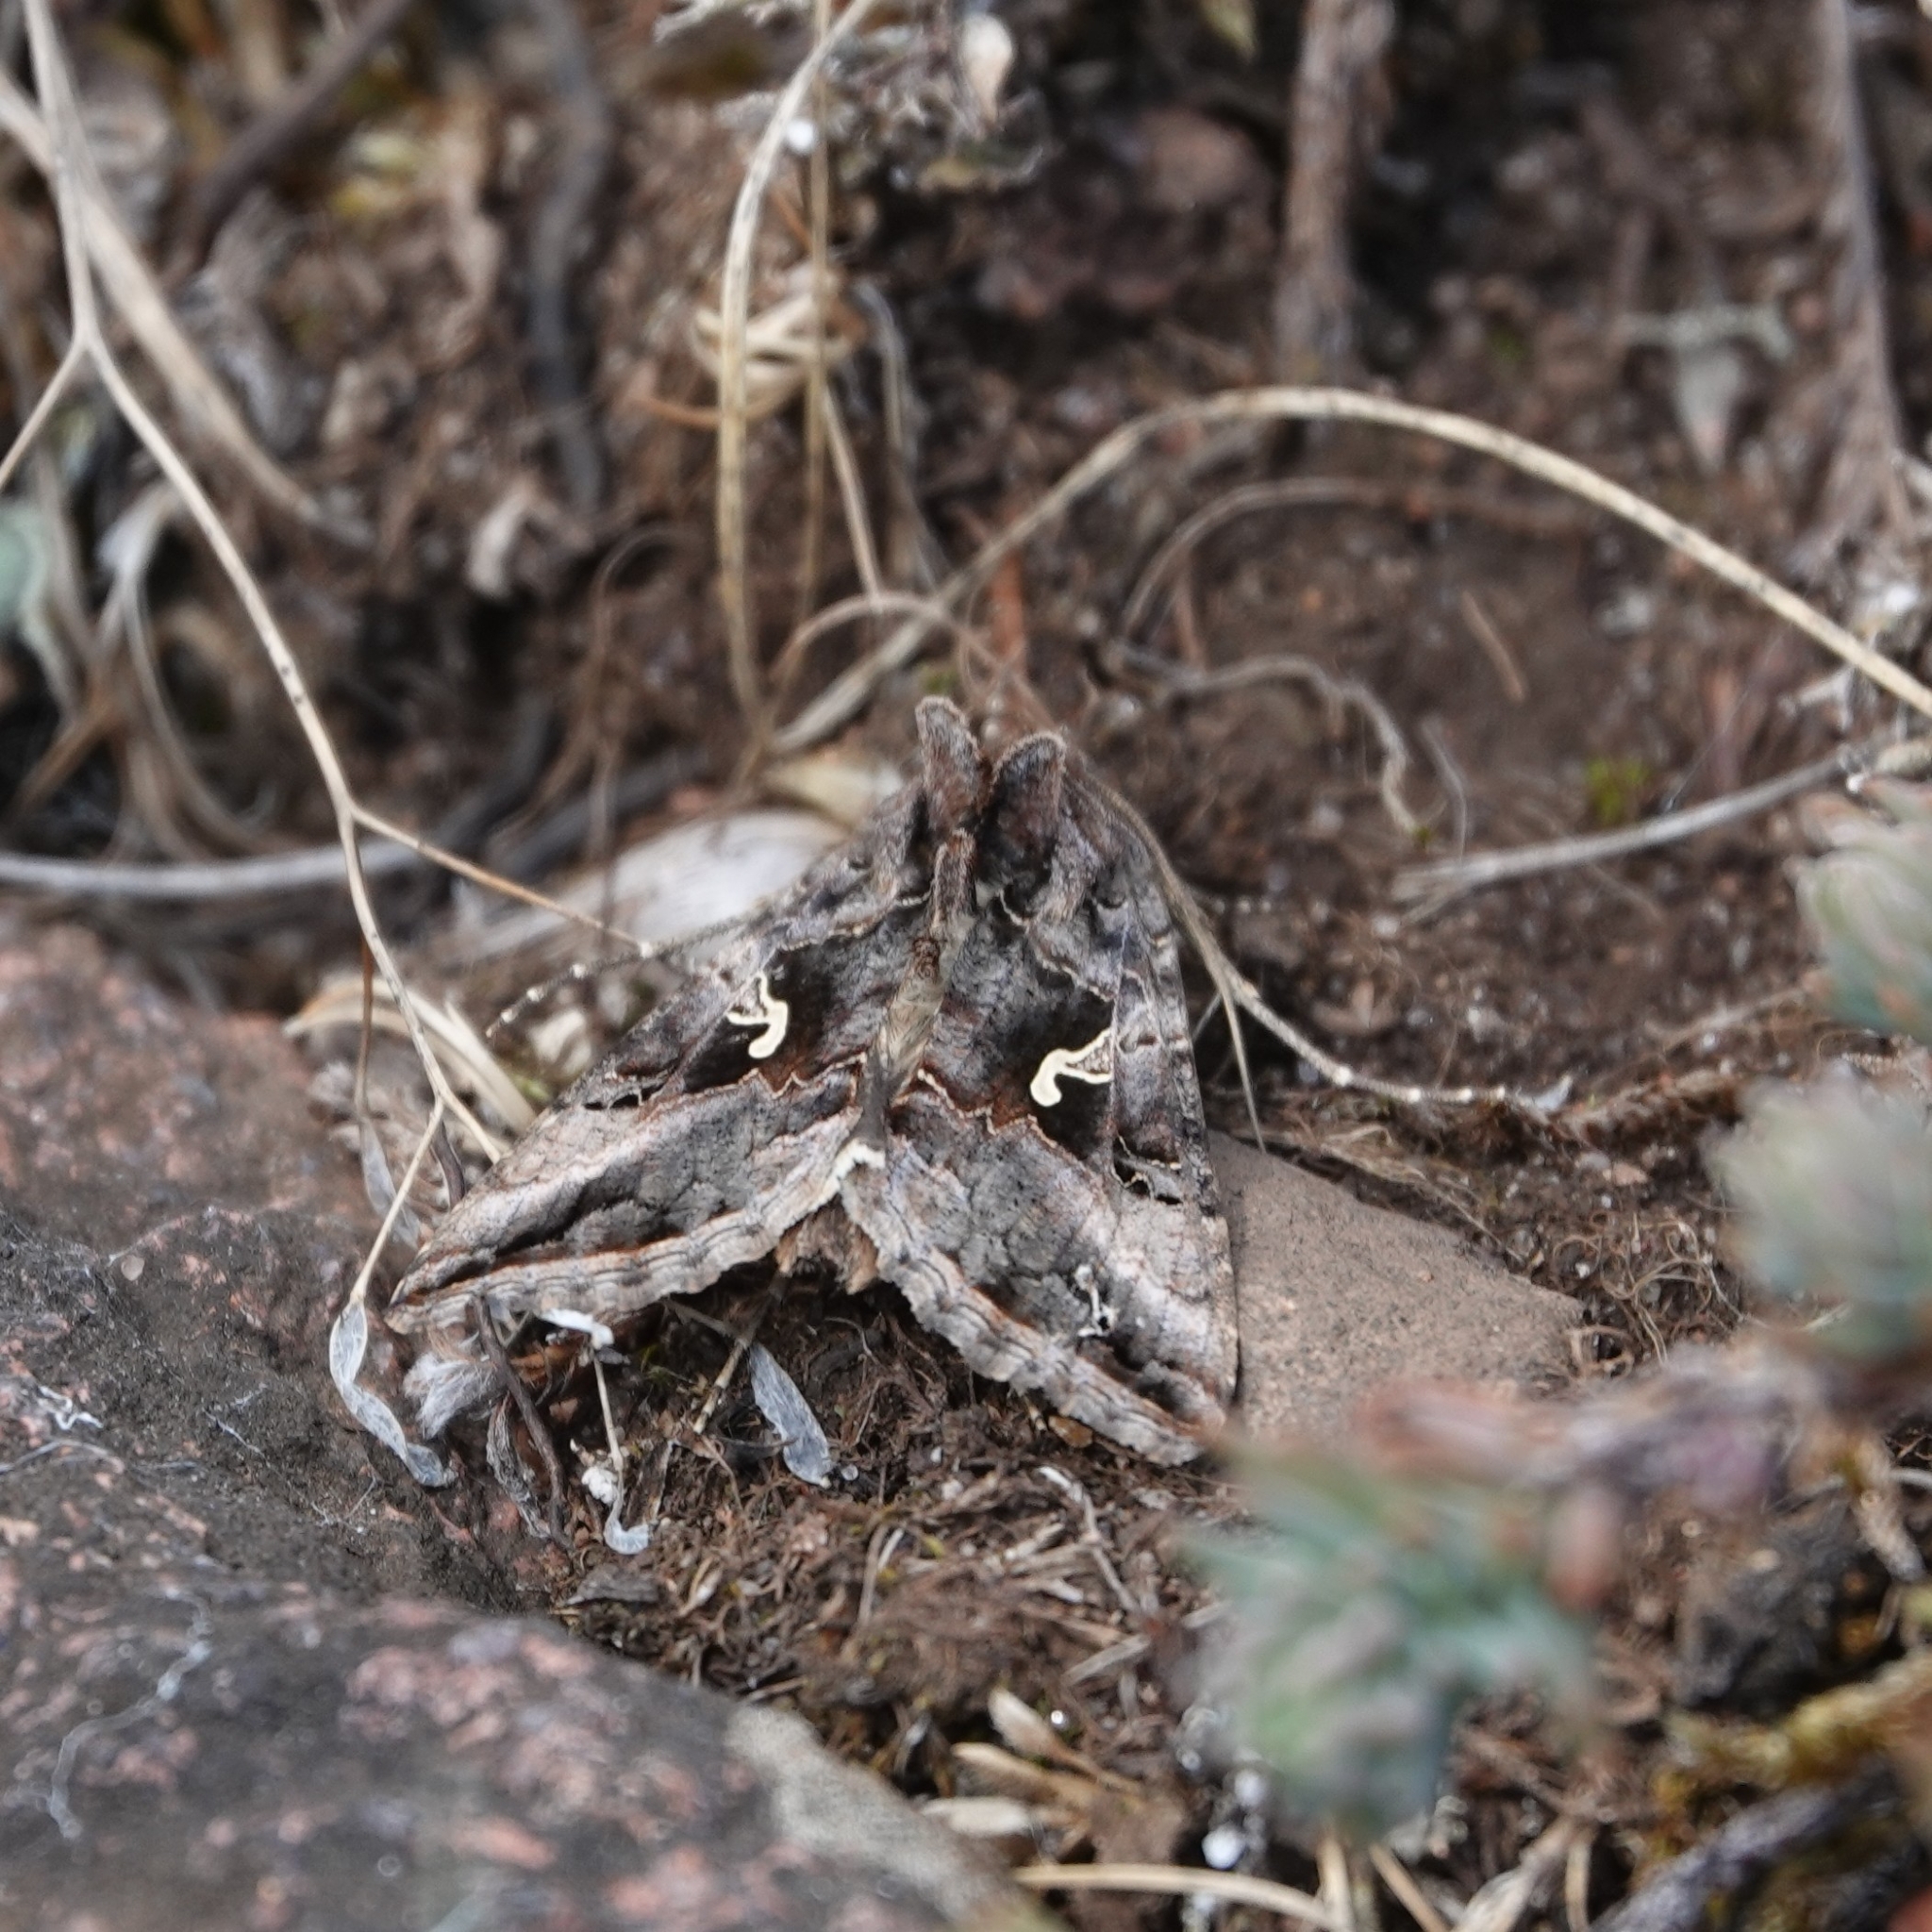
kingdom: Animalia
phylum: Arthropoda
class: Insecta
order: Lepidoptera
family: Noctuidae
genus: Autographa
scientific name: Autographa gamma
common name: Silver y
